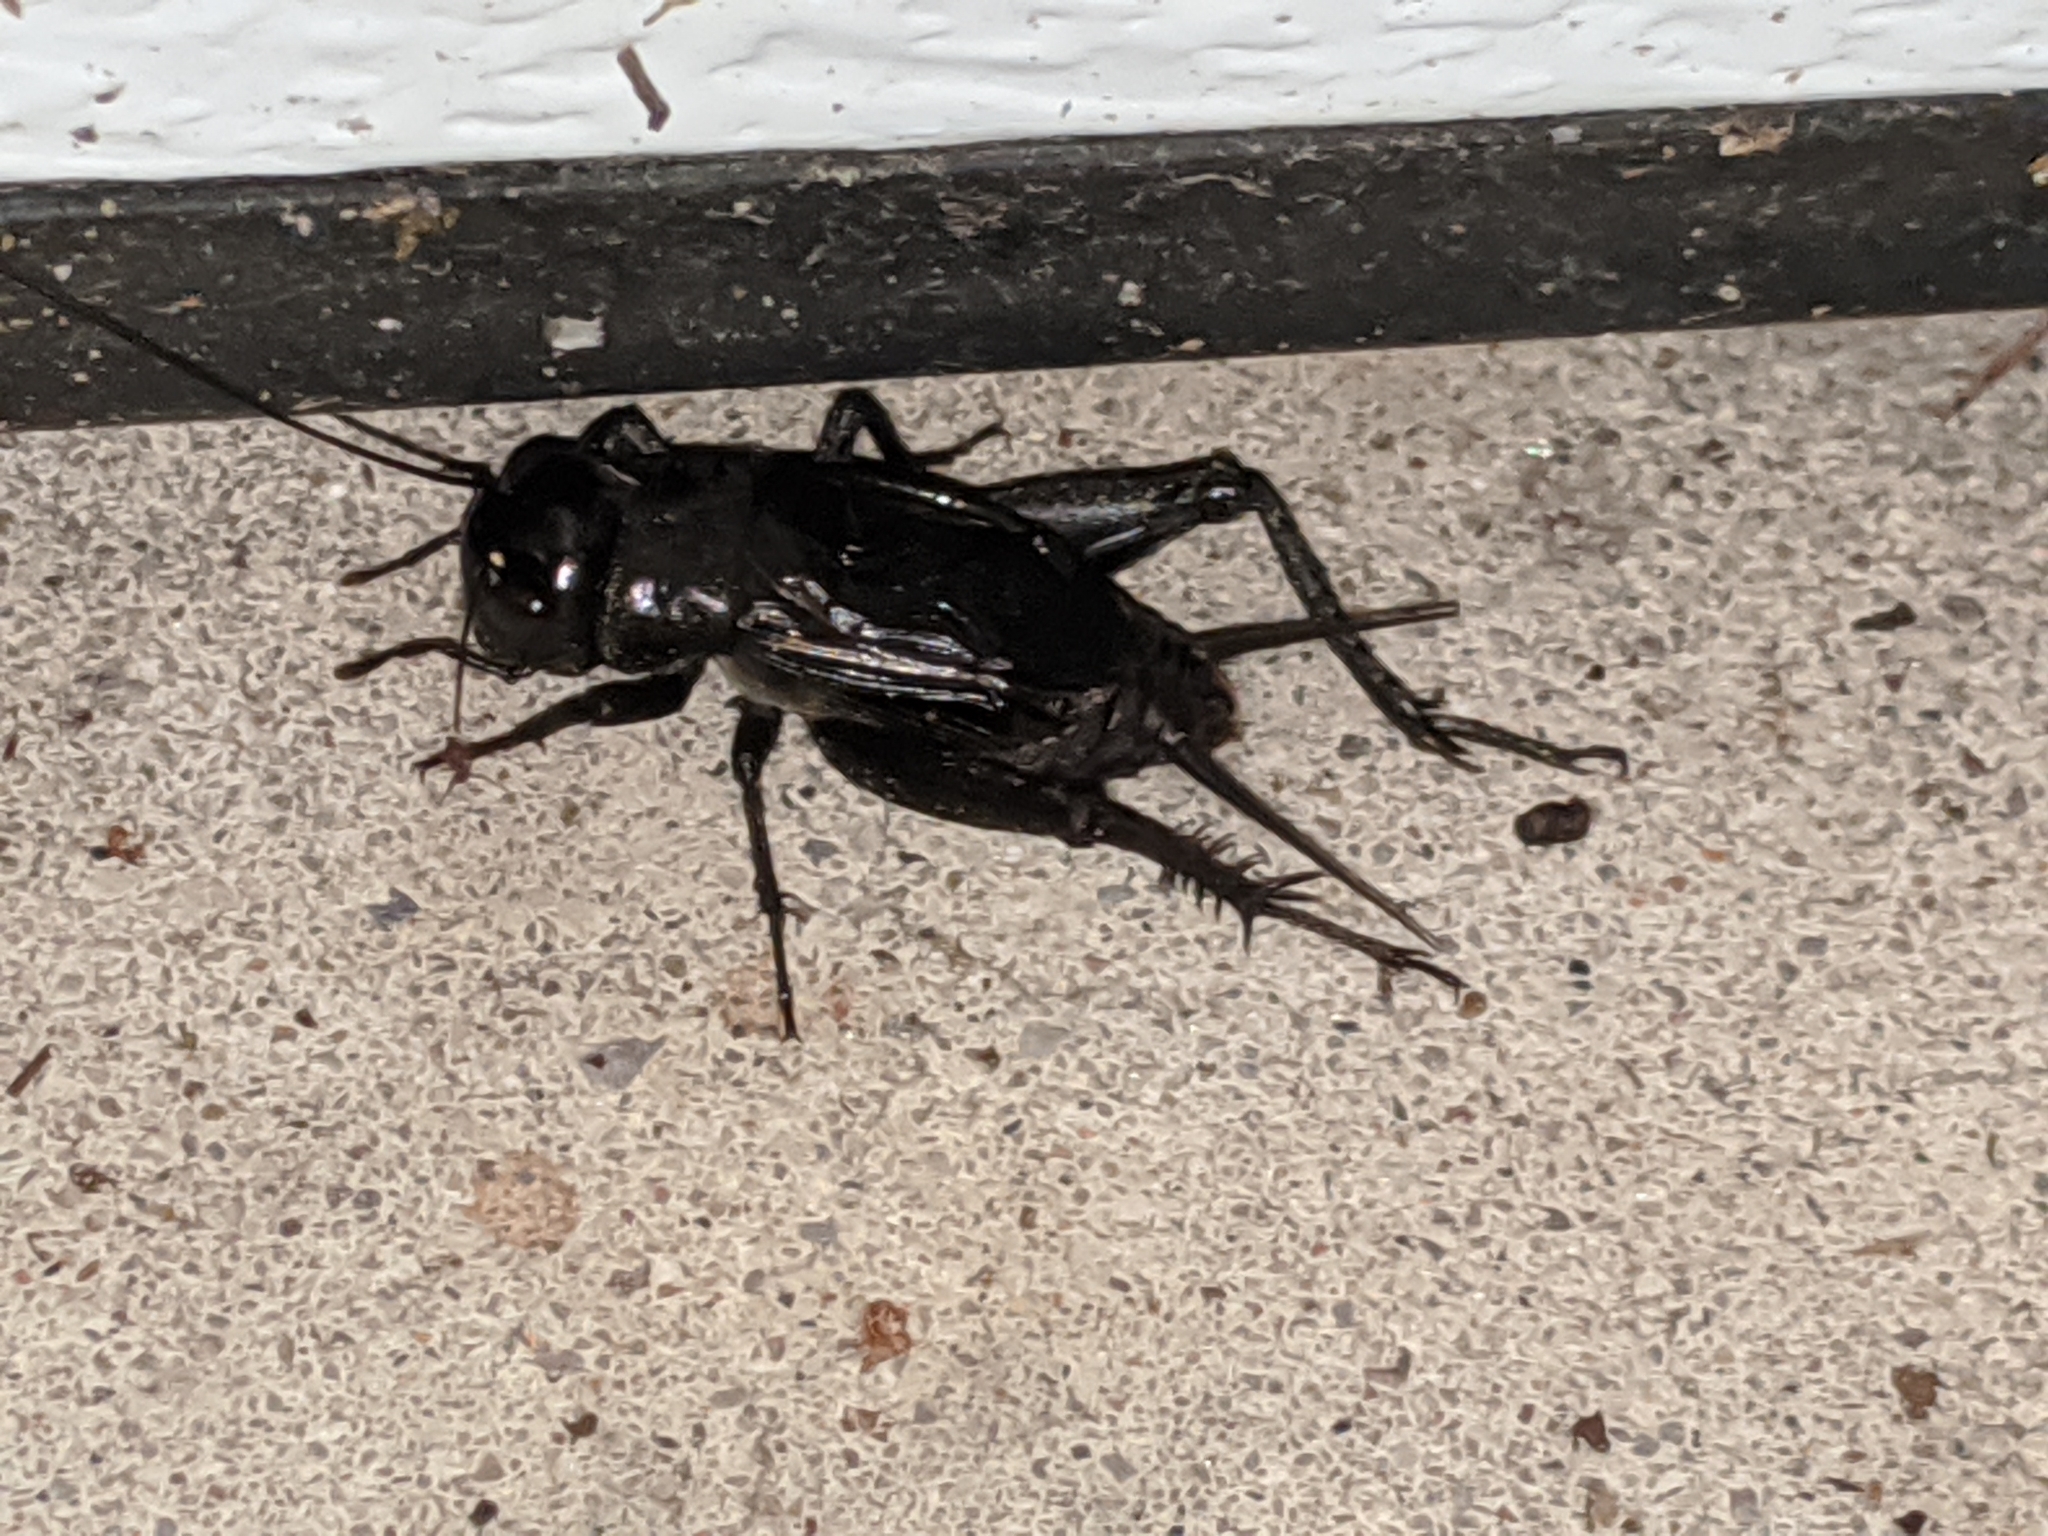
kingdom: Animalia
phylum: Arthropoda
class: Insecta
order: Orthoptera
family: Gryllidae
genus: Gryllus
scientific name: Gryllus pennsylvanicus
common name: Fall field cricket
